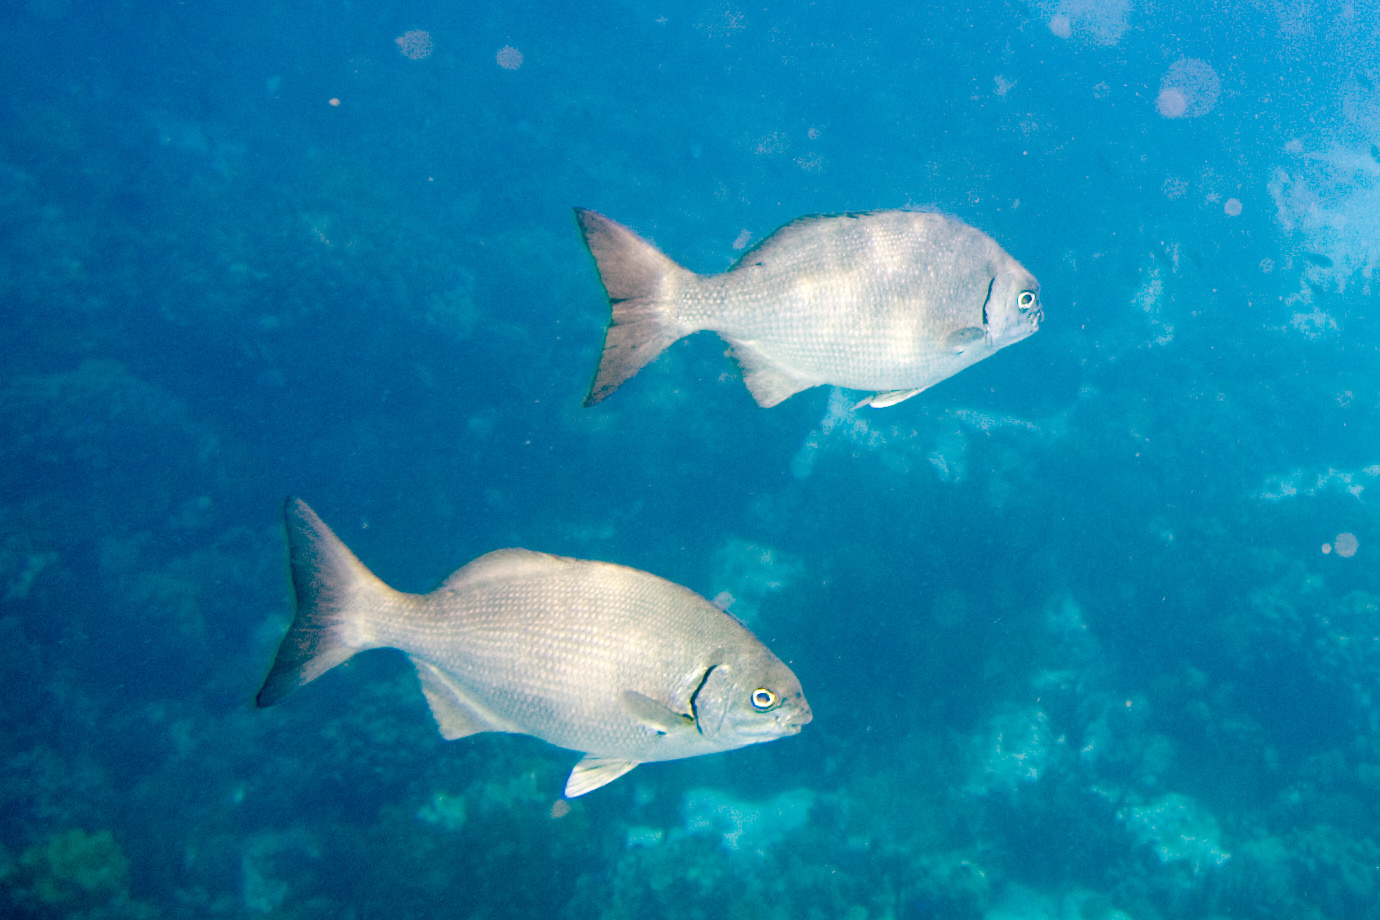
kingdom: Animalia
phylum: Chordata
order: Perciformes
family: Kyphosidae
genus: Kyphosus
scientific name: Kyphosus sectatrix
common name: Bermuda chub
